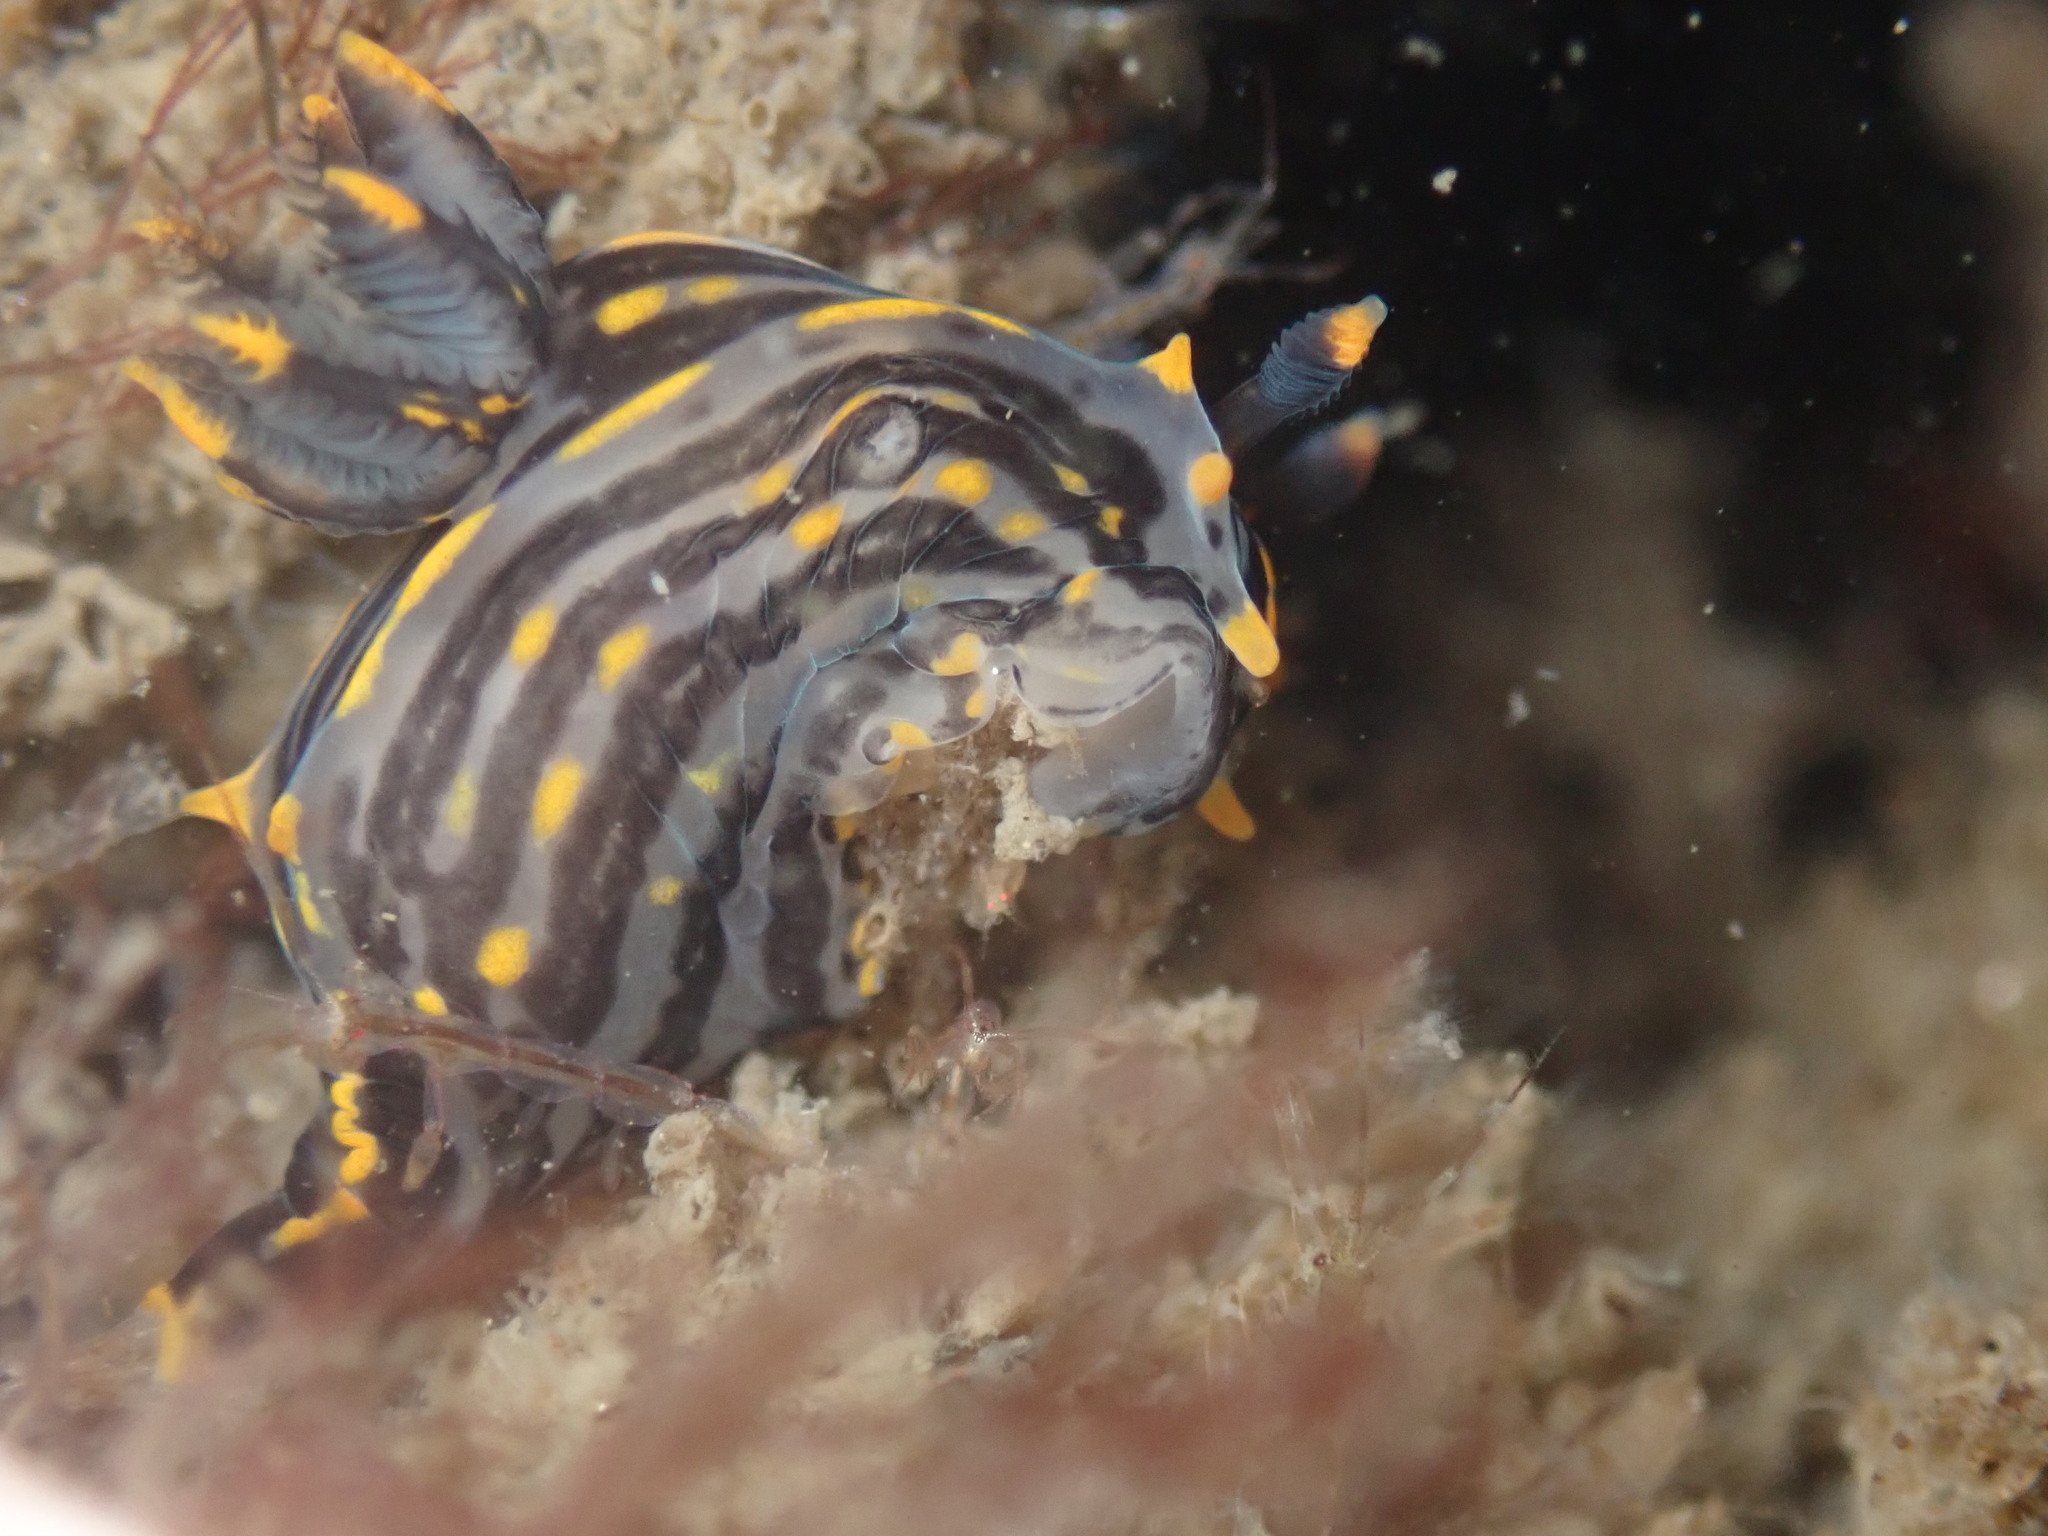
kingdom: Animalia
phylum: Mollusca
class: Gastropoda
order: Nudibranchia
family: Polyceridae
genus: Polycera
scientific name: Polycera atra
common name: Orange-spike polycera
